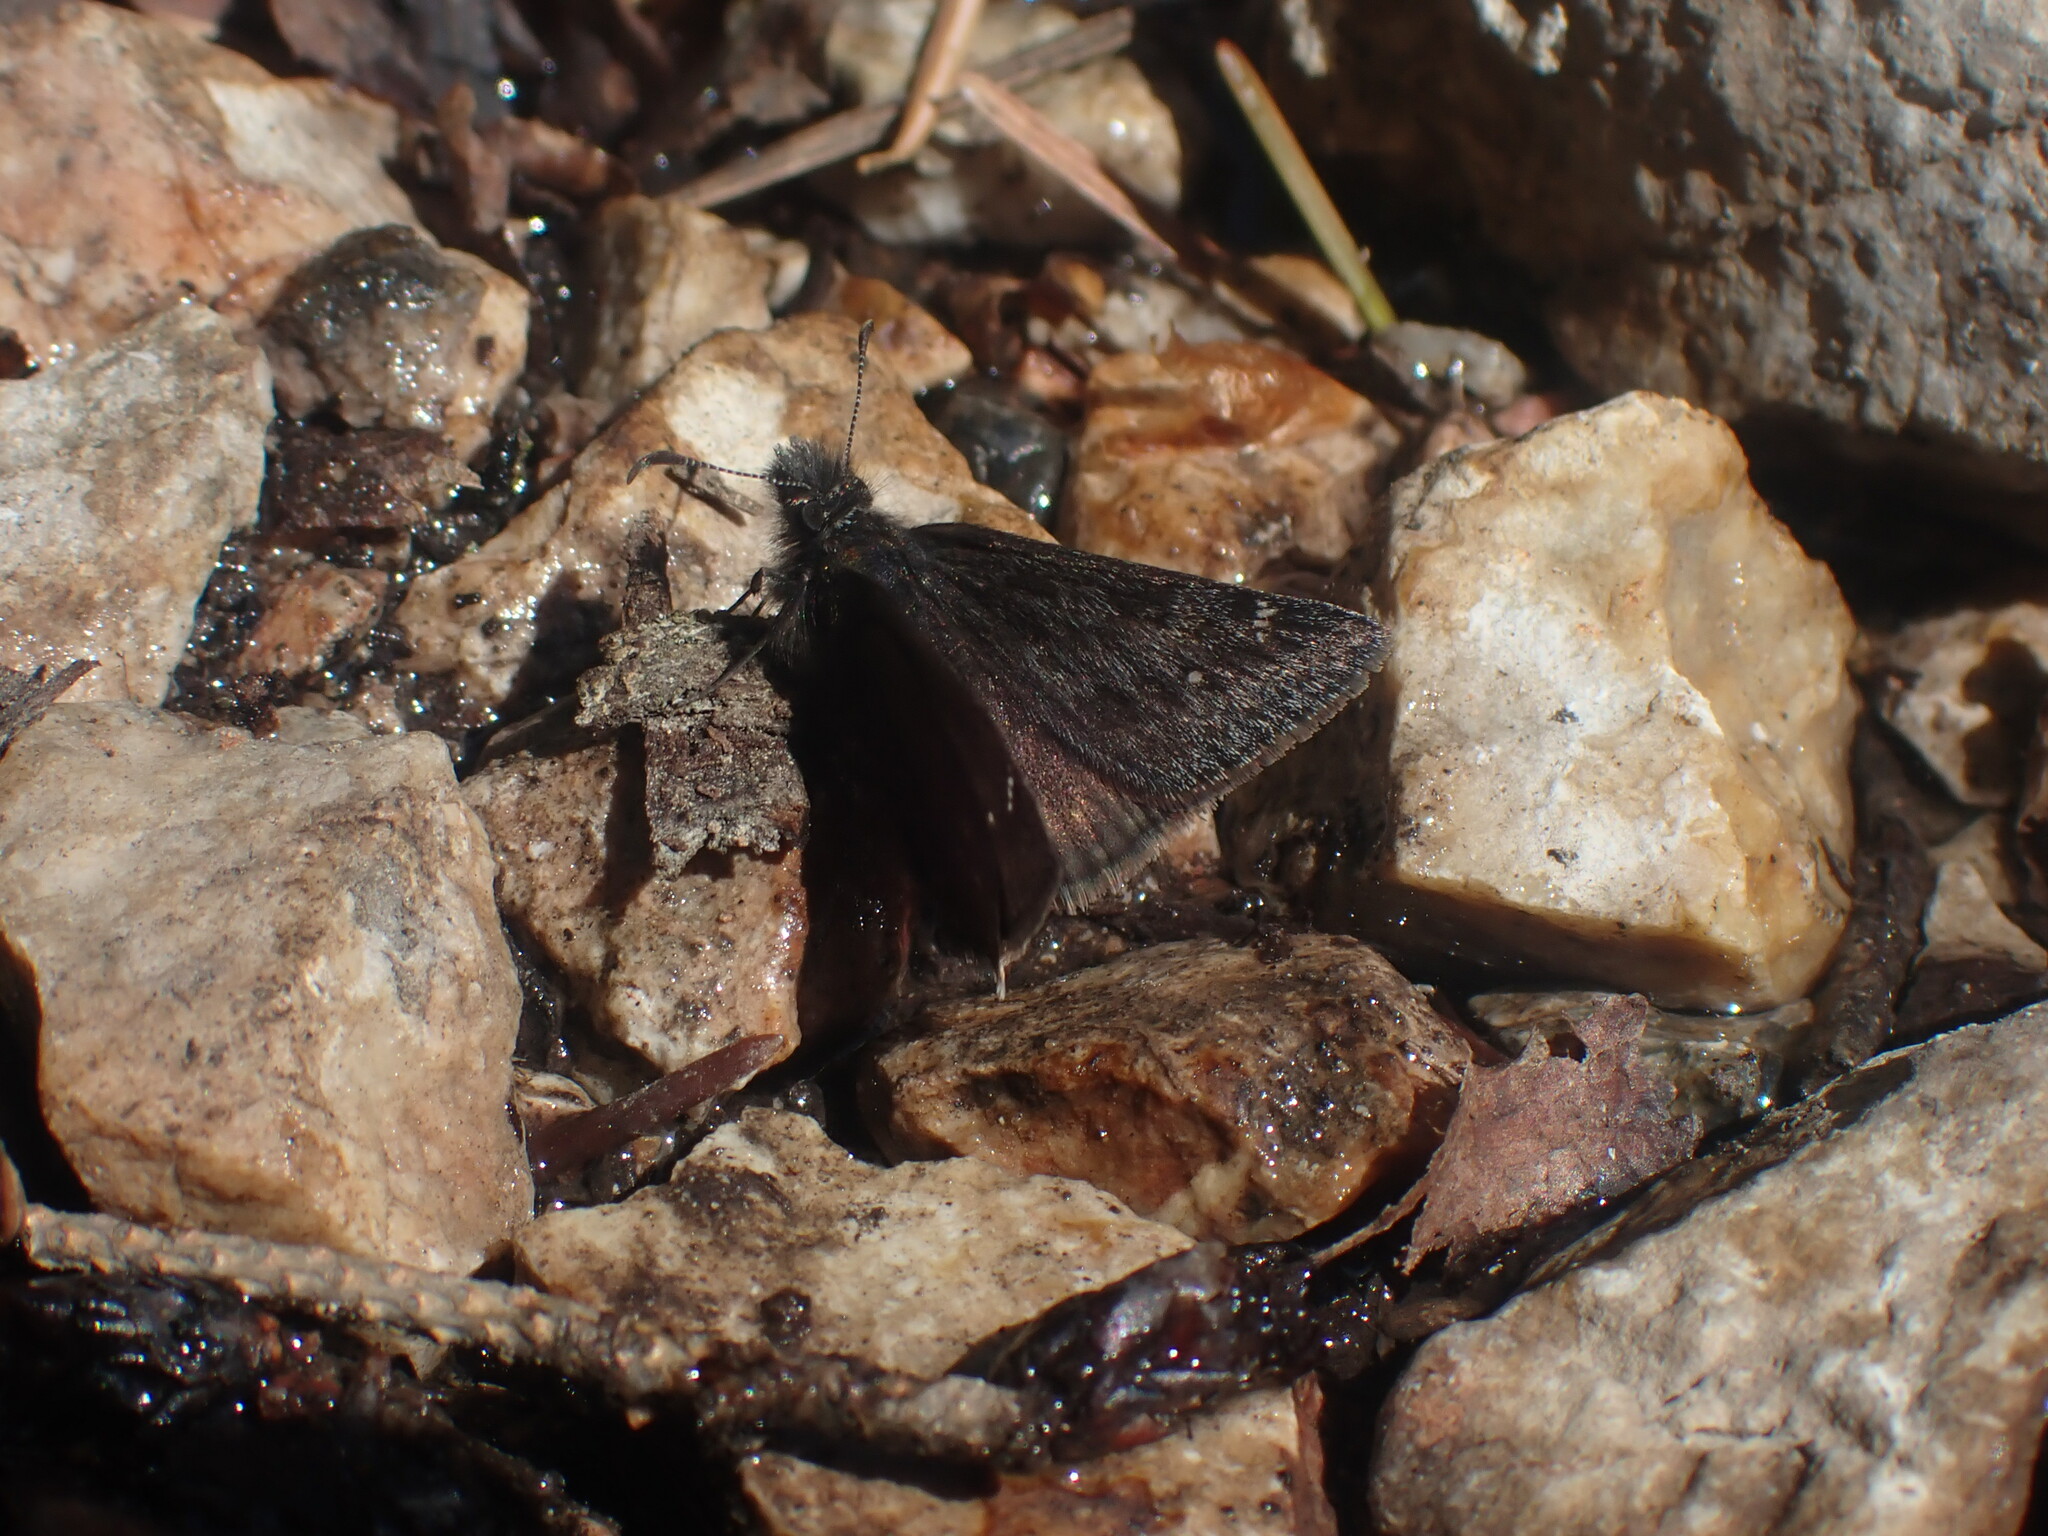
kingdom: Animalia
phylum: Arthropoda
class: Insecta
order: Lepidoptera
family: Hesperiidae
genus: Erynnis
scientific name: Erynnis persius
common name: Persius duskywing
